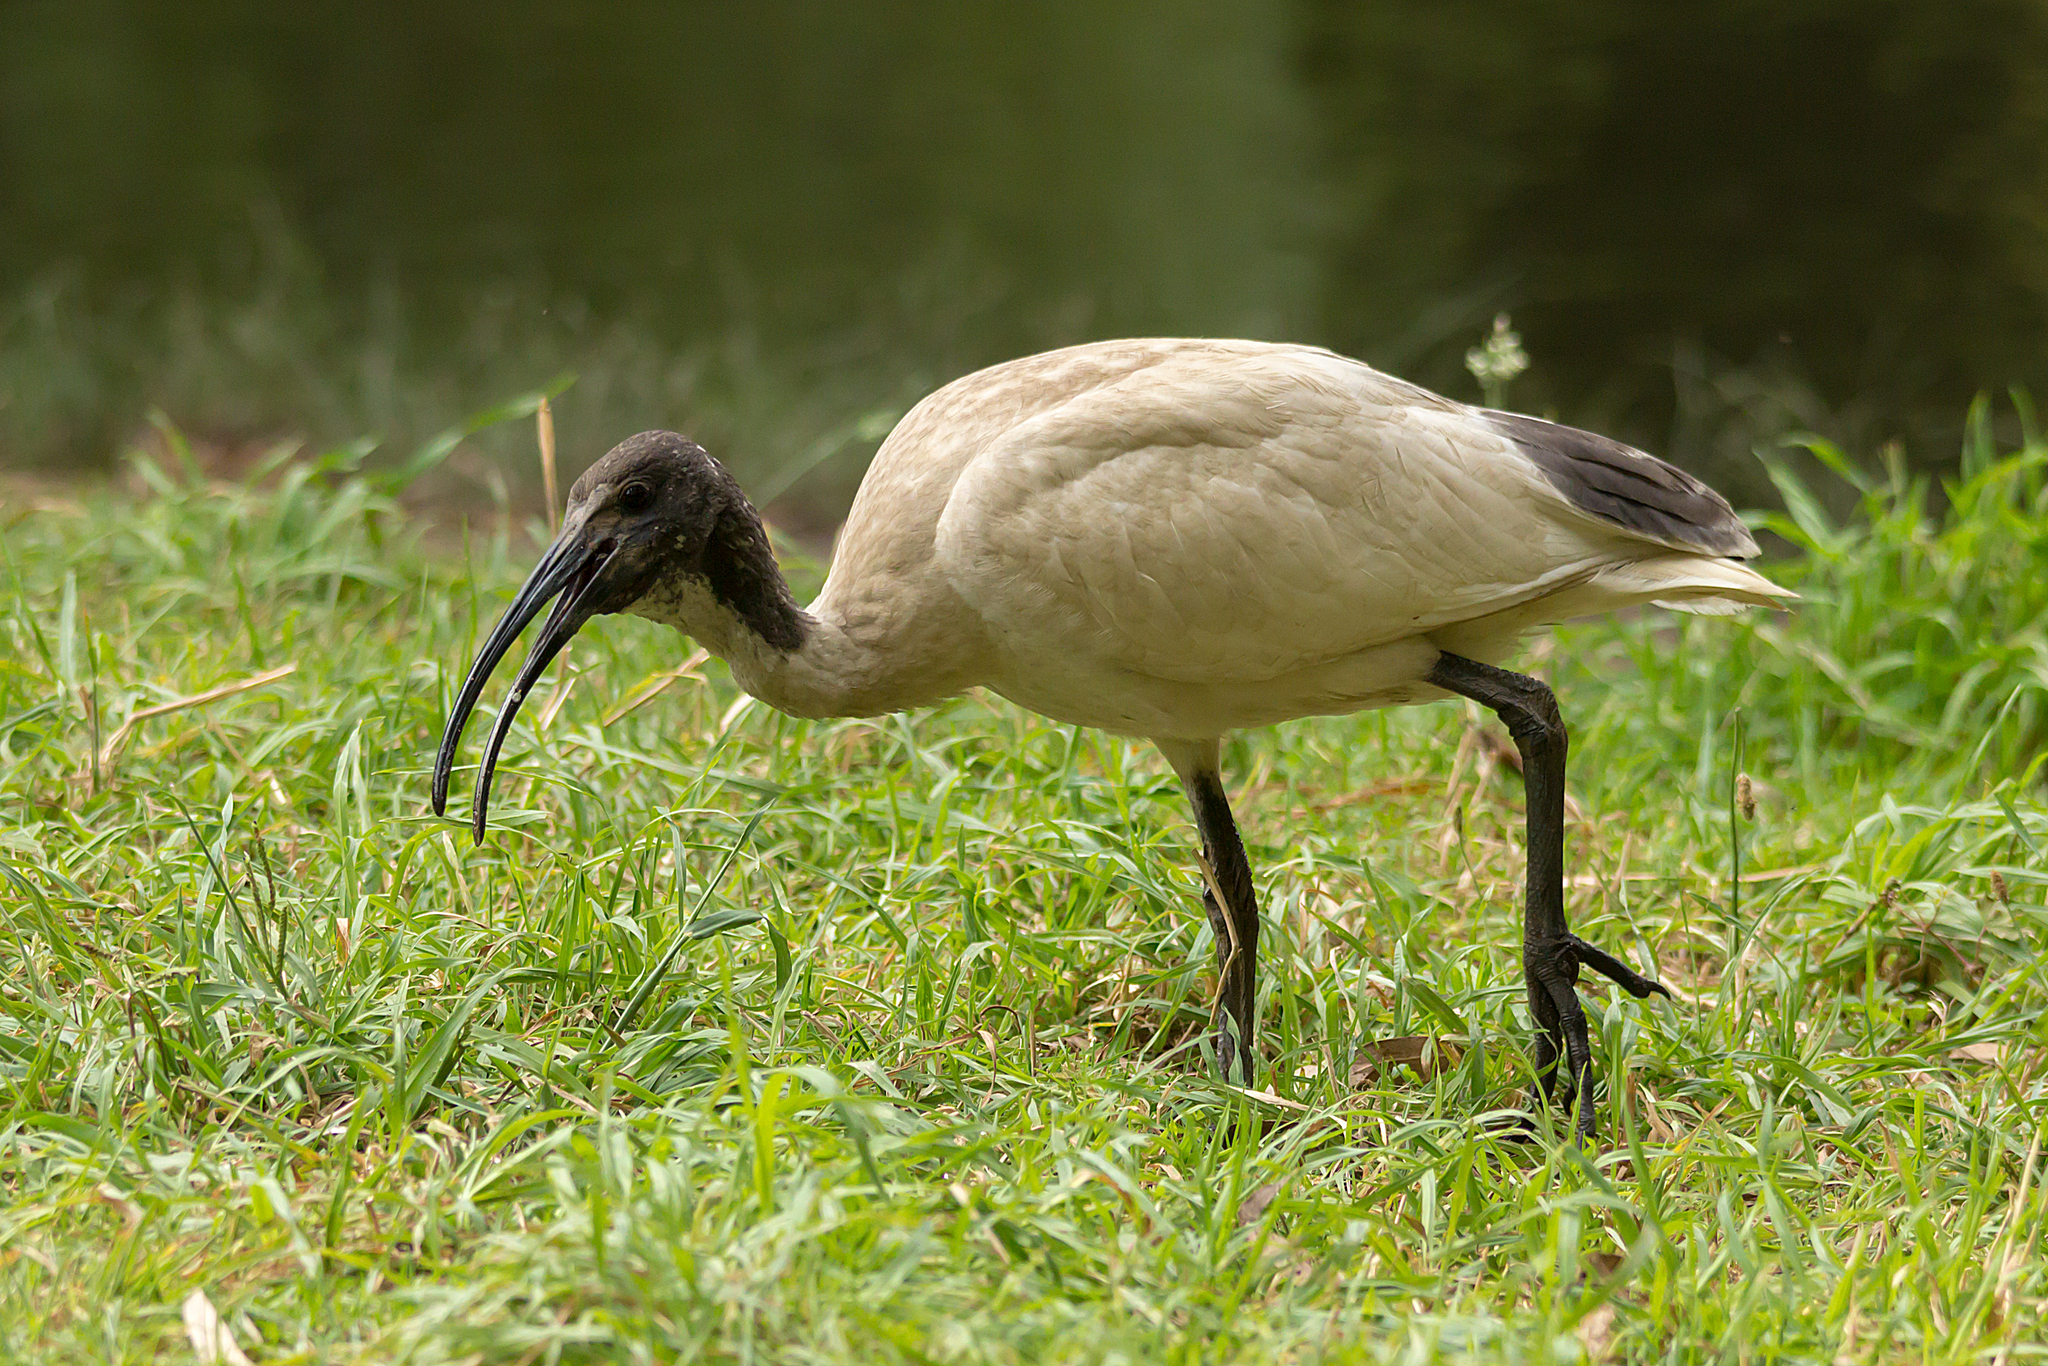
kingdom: Animalia
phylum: Chordata
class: Aves
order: Pelecaniformes
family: Threskiornithidae
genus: Threskiornis
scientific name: Threskiornis molucca
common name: Australian white ibis
